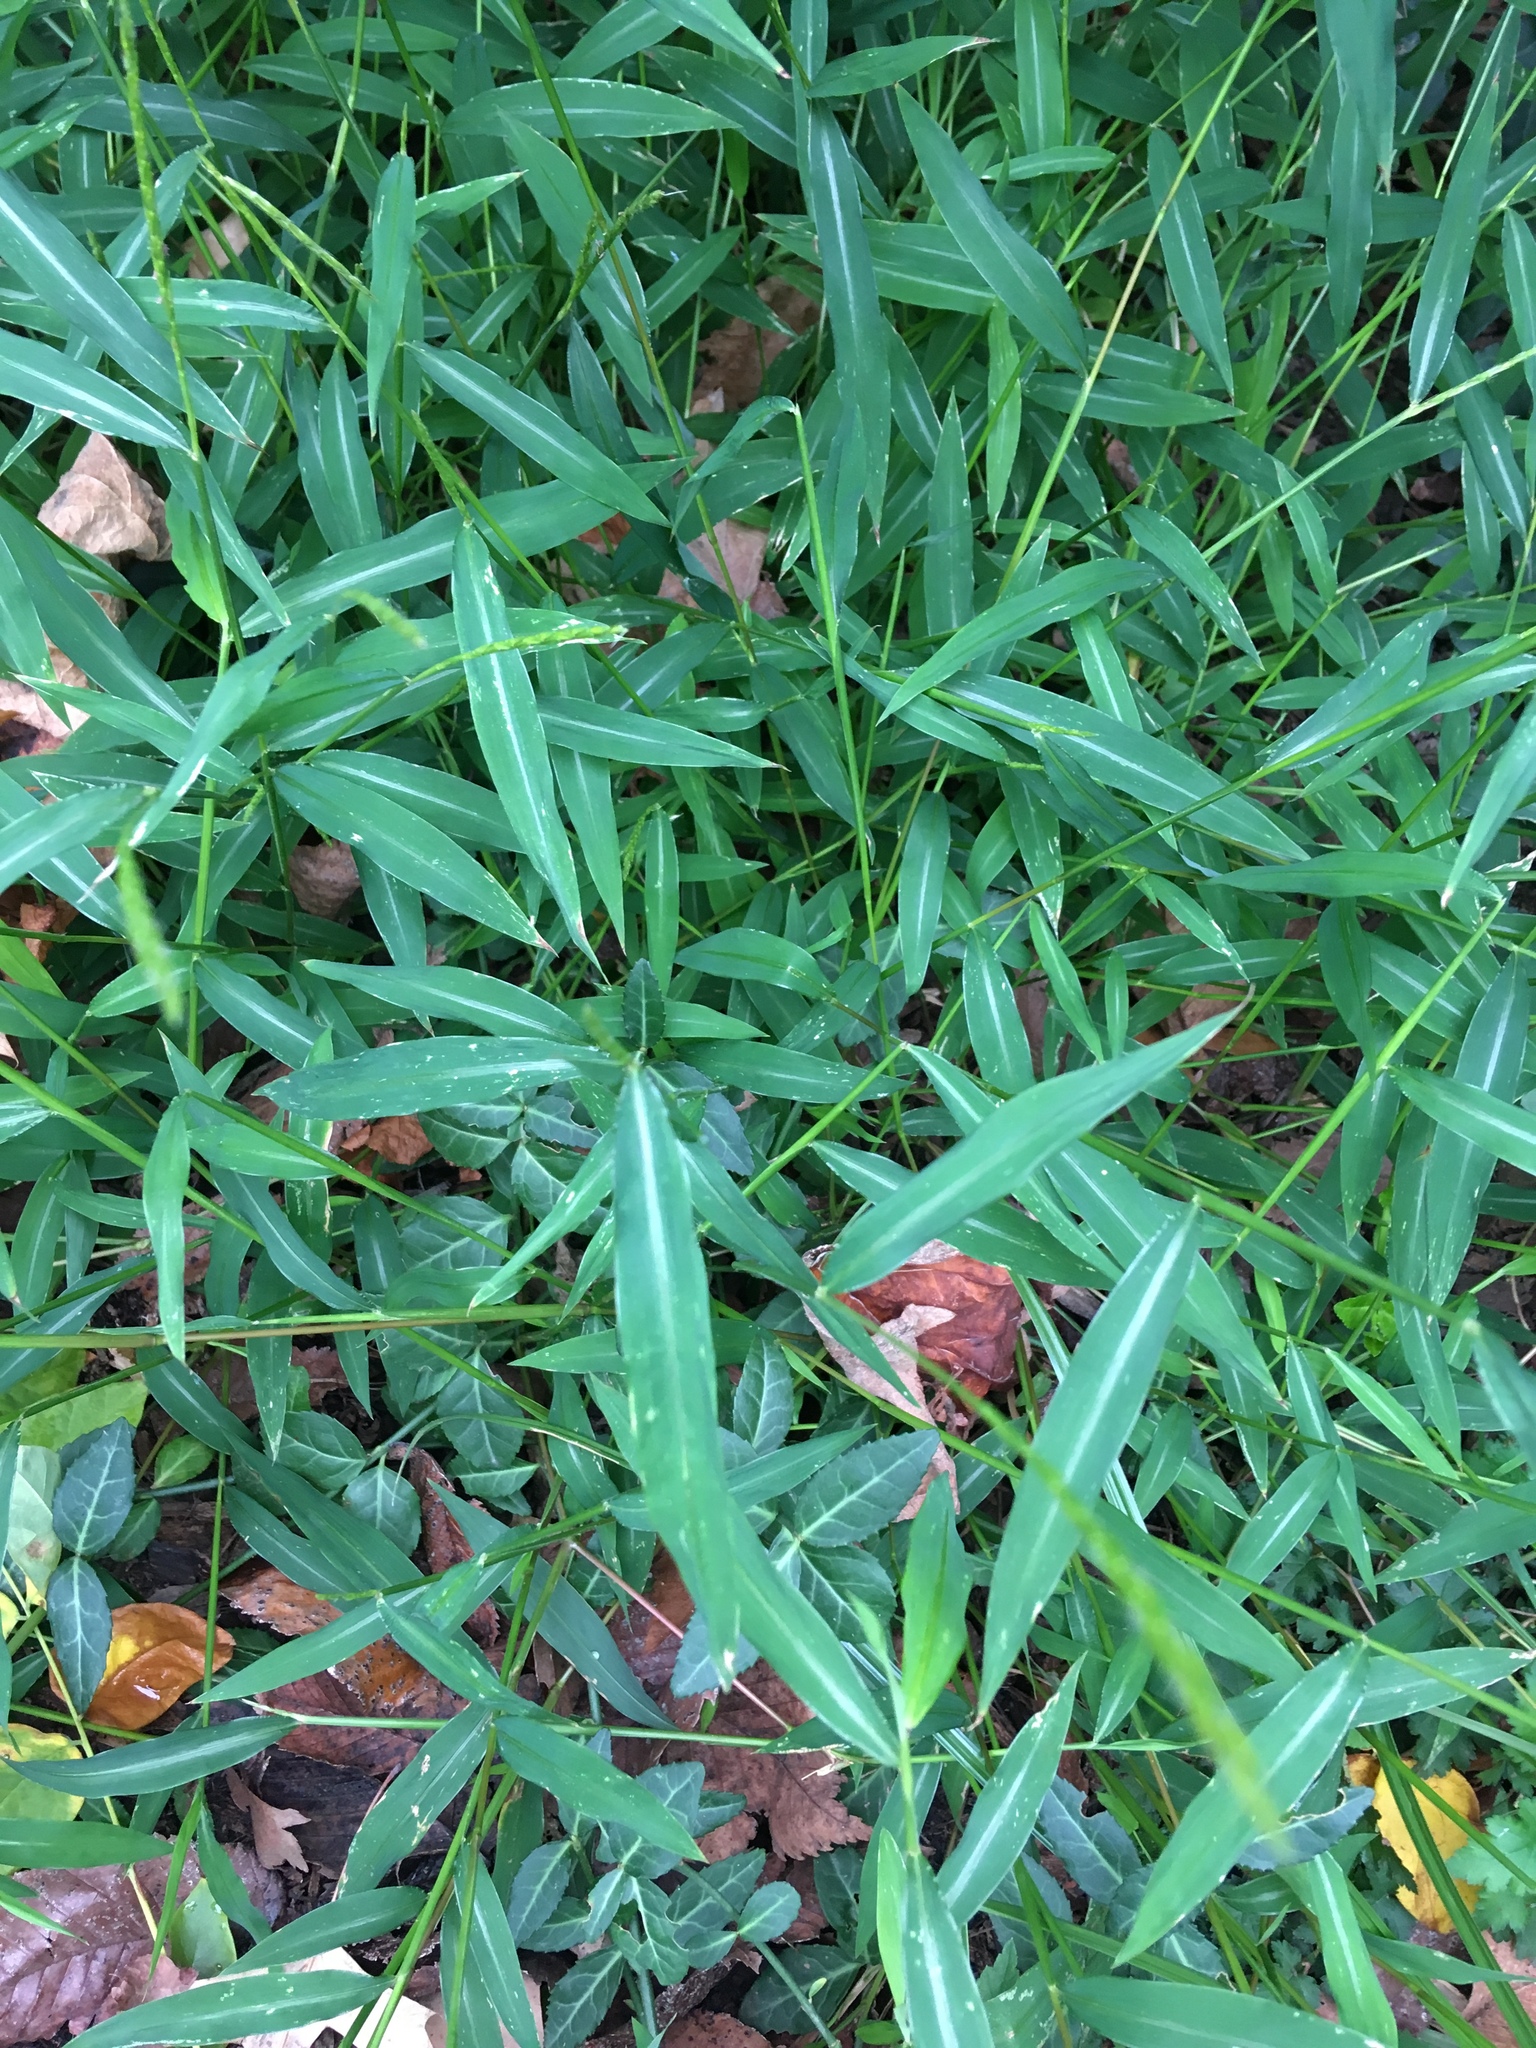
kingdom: Plantae
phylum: Tracheophyta
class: Liliopsida
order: Poales
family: Poaceae
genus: Microstegium
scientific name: Microstegium vimineum
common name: Japanese stiltgrass
